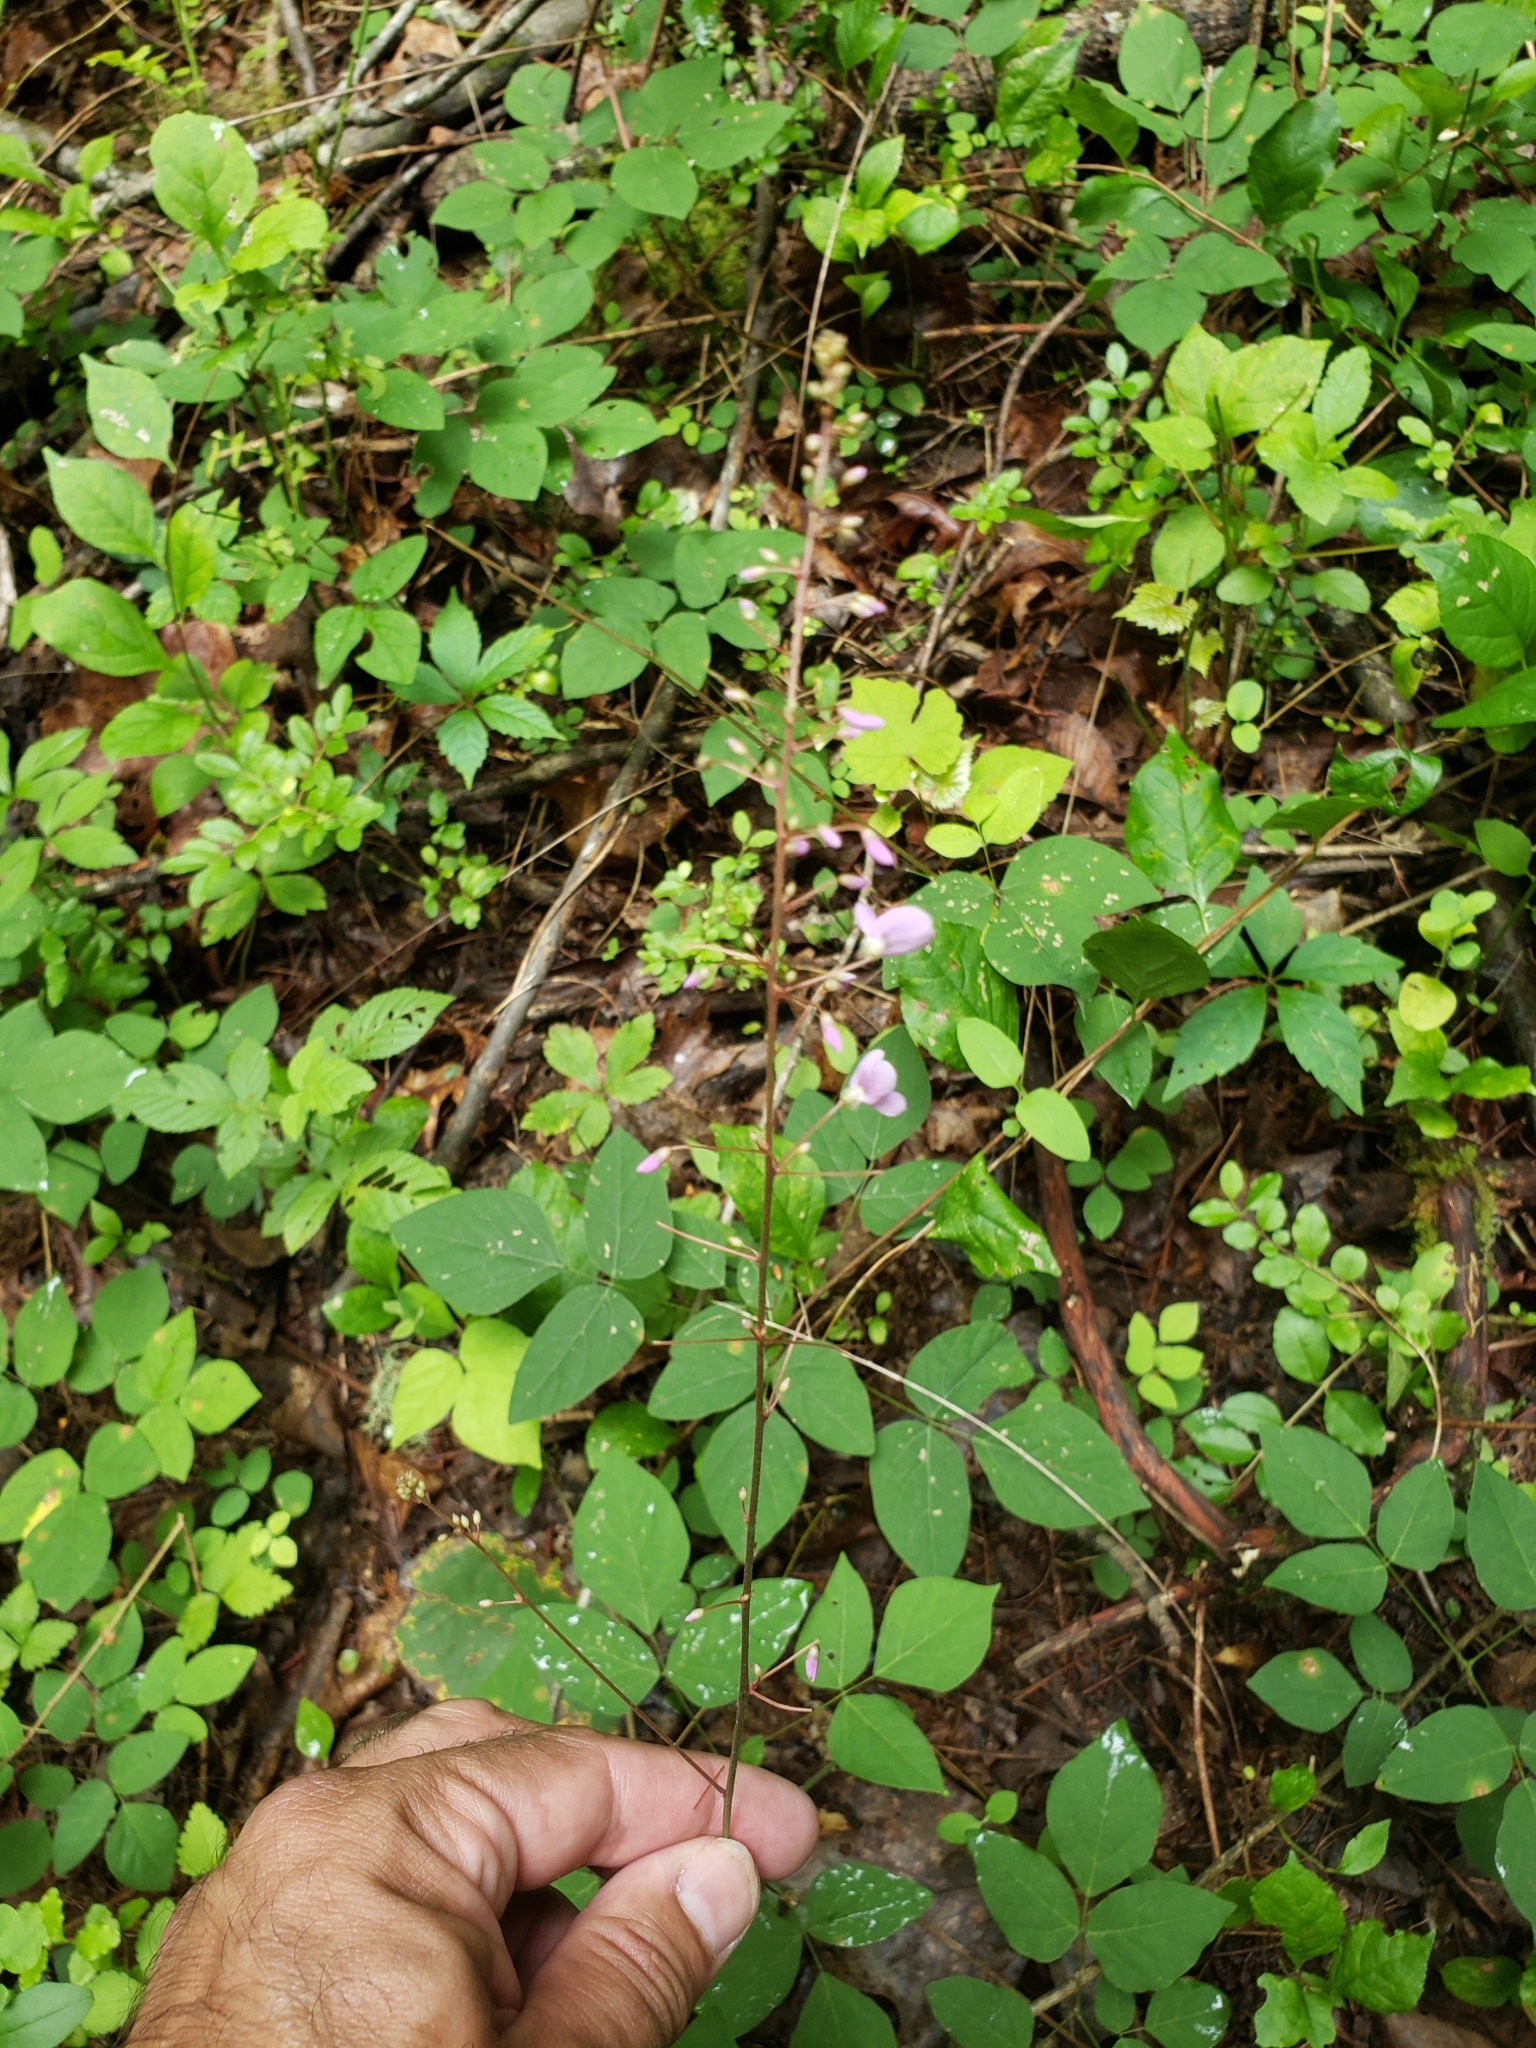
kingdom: Plantae
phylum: Tracheophyta
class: Magnoliopsida
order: Fabales
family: Fabaceae
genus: Hylodesmum
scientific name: Hylodesmum nudiflorum
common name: Bare-stemmed tick-trefoil
